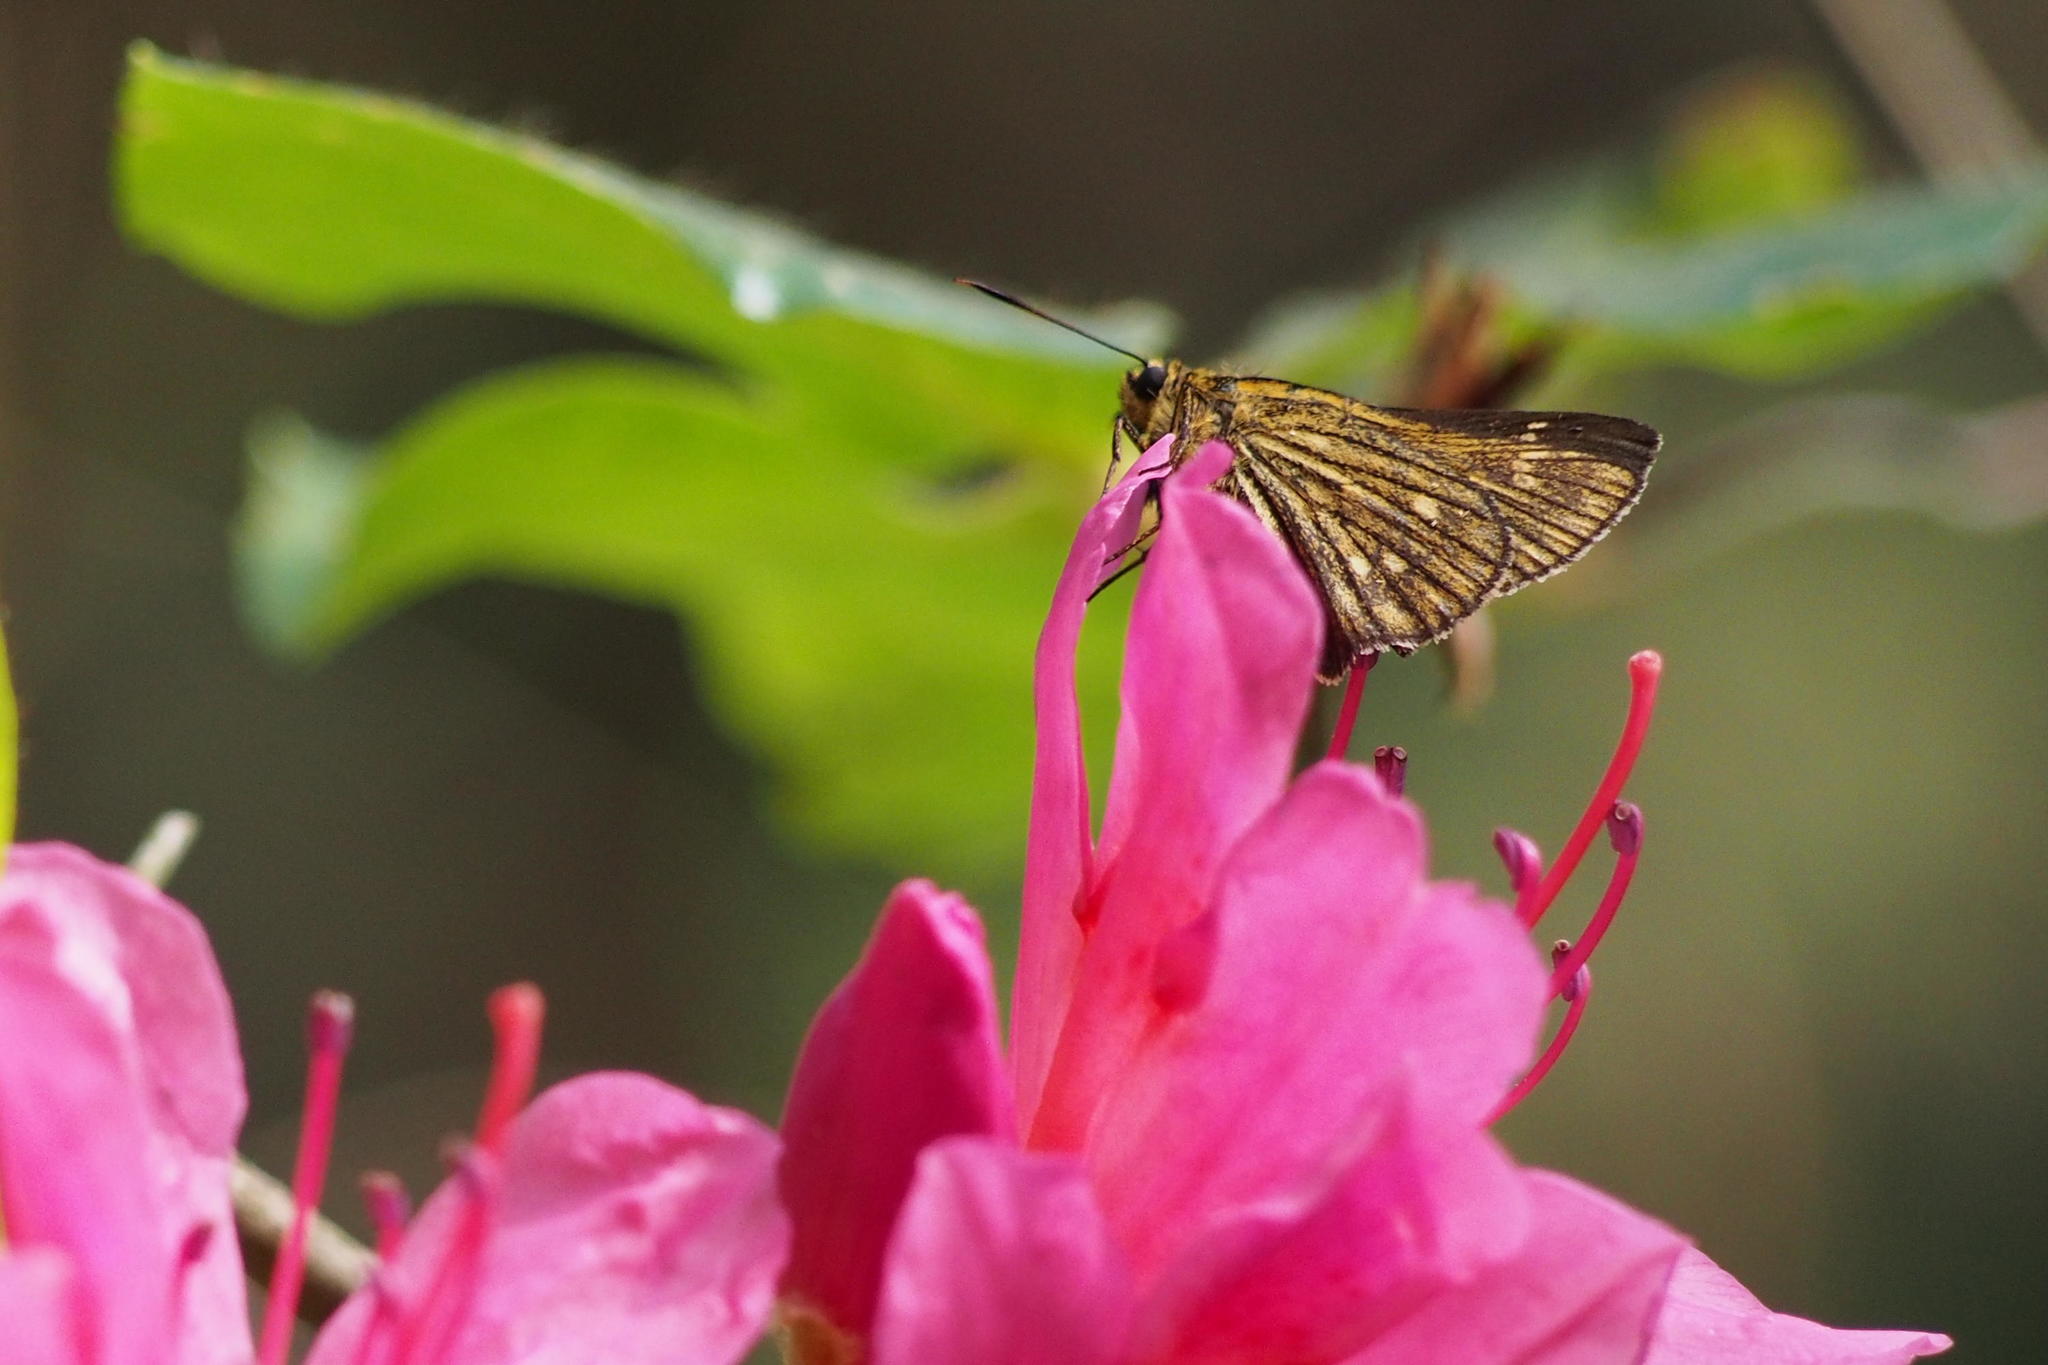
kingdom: Animalia
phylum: Arthropoda
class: Insecta
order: Lepidoptera
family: Hesperiidae
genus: Thoressa
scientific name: Thoressa varia
